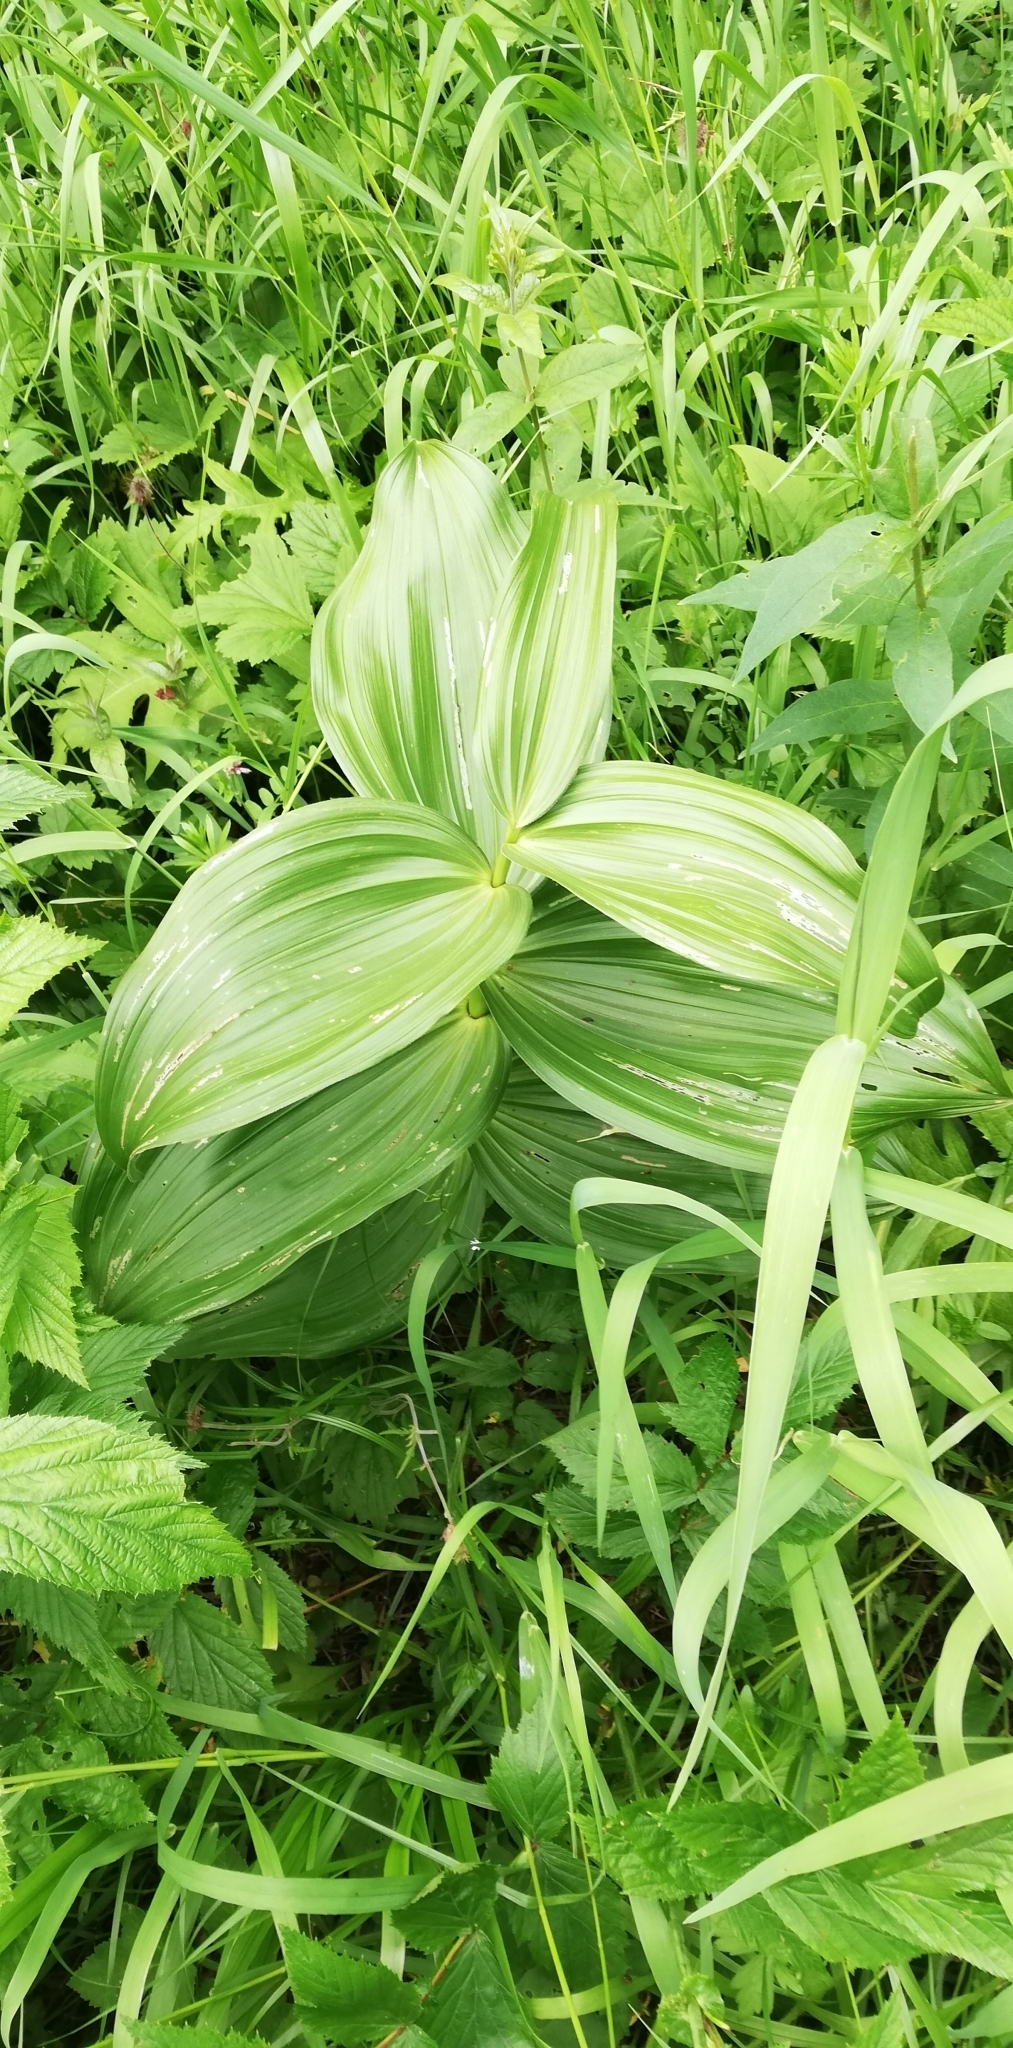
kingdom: Plantae
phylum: Tracheophyta
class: Liliopsida
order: Liliales
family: Melanthiaceae
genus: Veratrum
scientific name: Veratrum lobelianum
